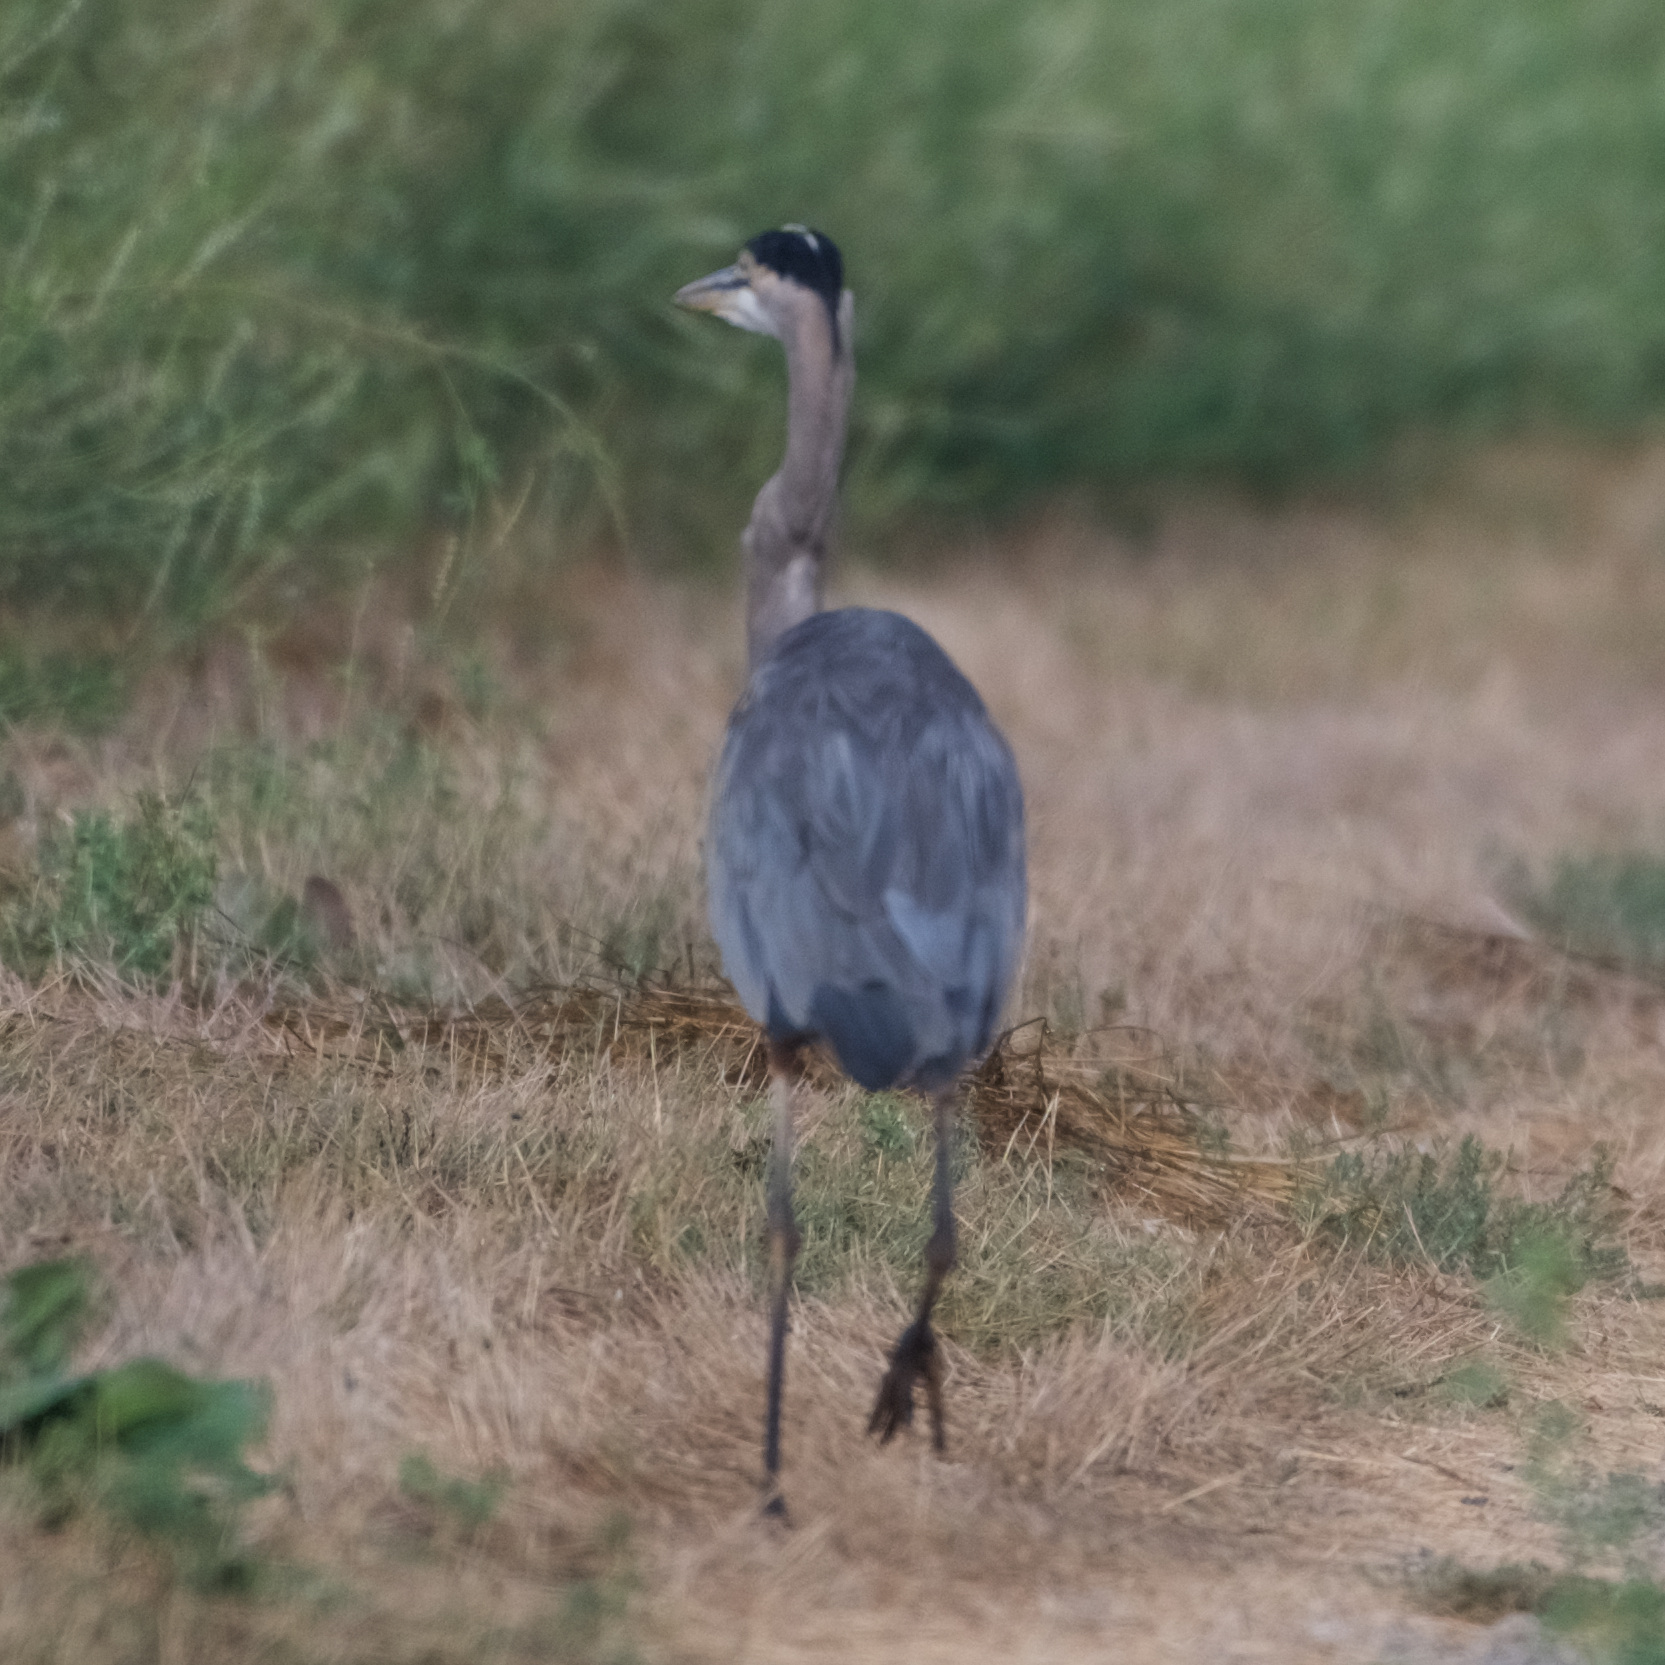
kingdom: Animalia
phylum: Chordata
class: Aves
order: Pelecaniformes
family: Ardeidae
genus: Ardea
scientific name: Ardea herodias
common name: Great blue heron
